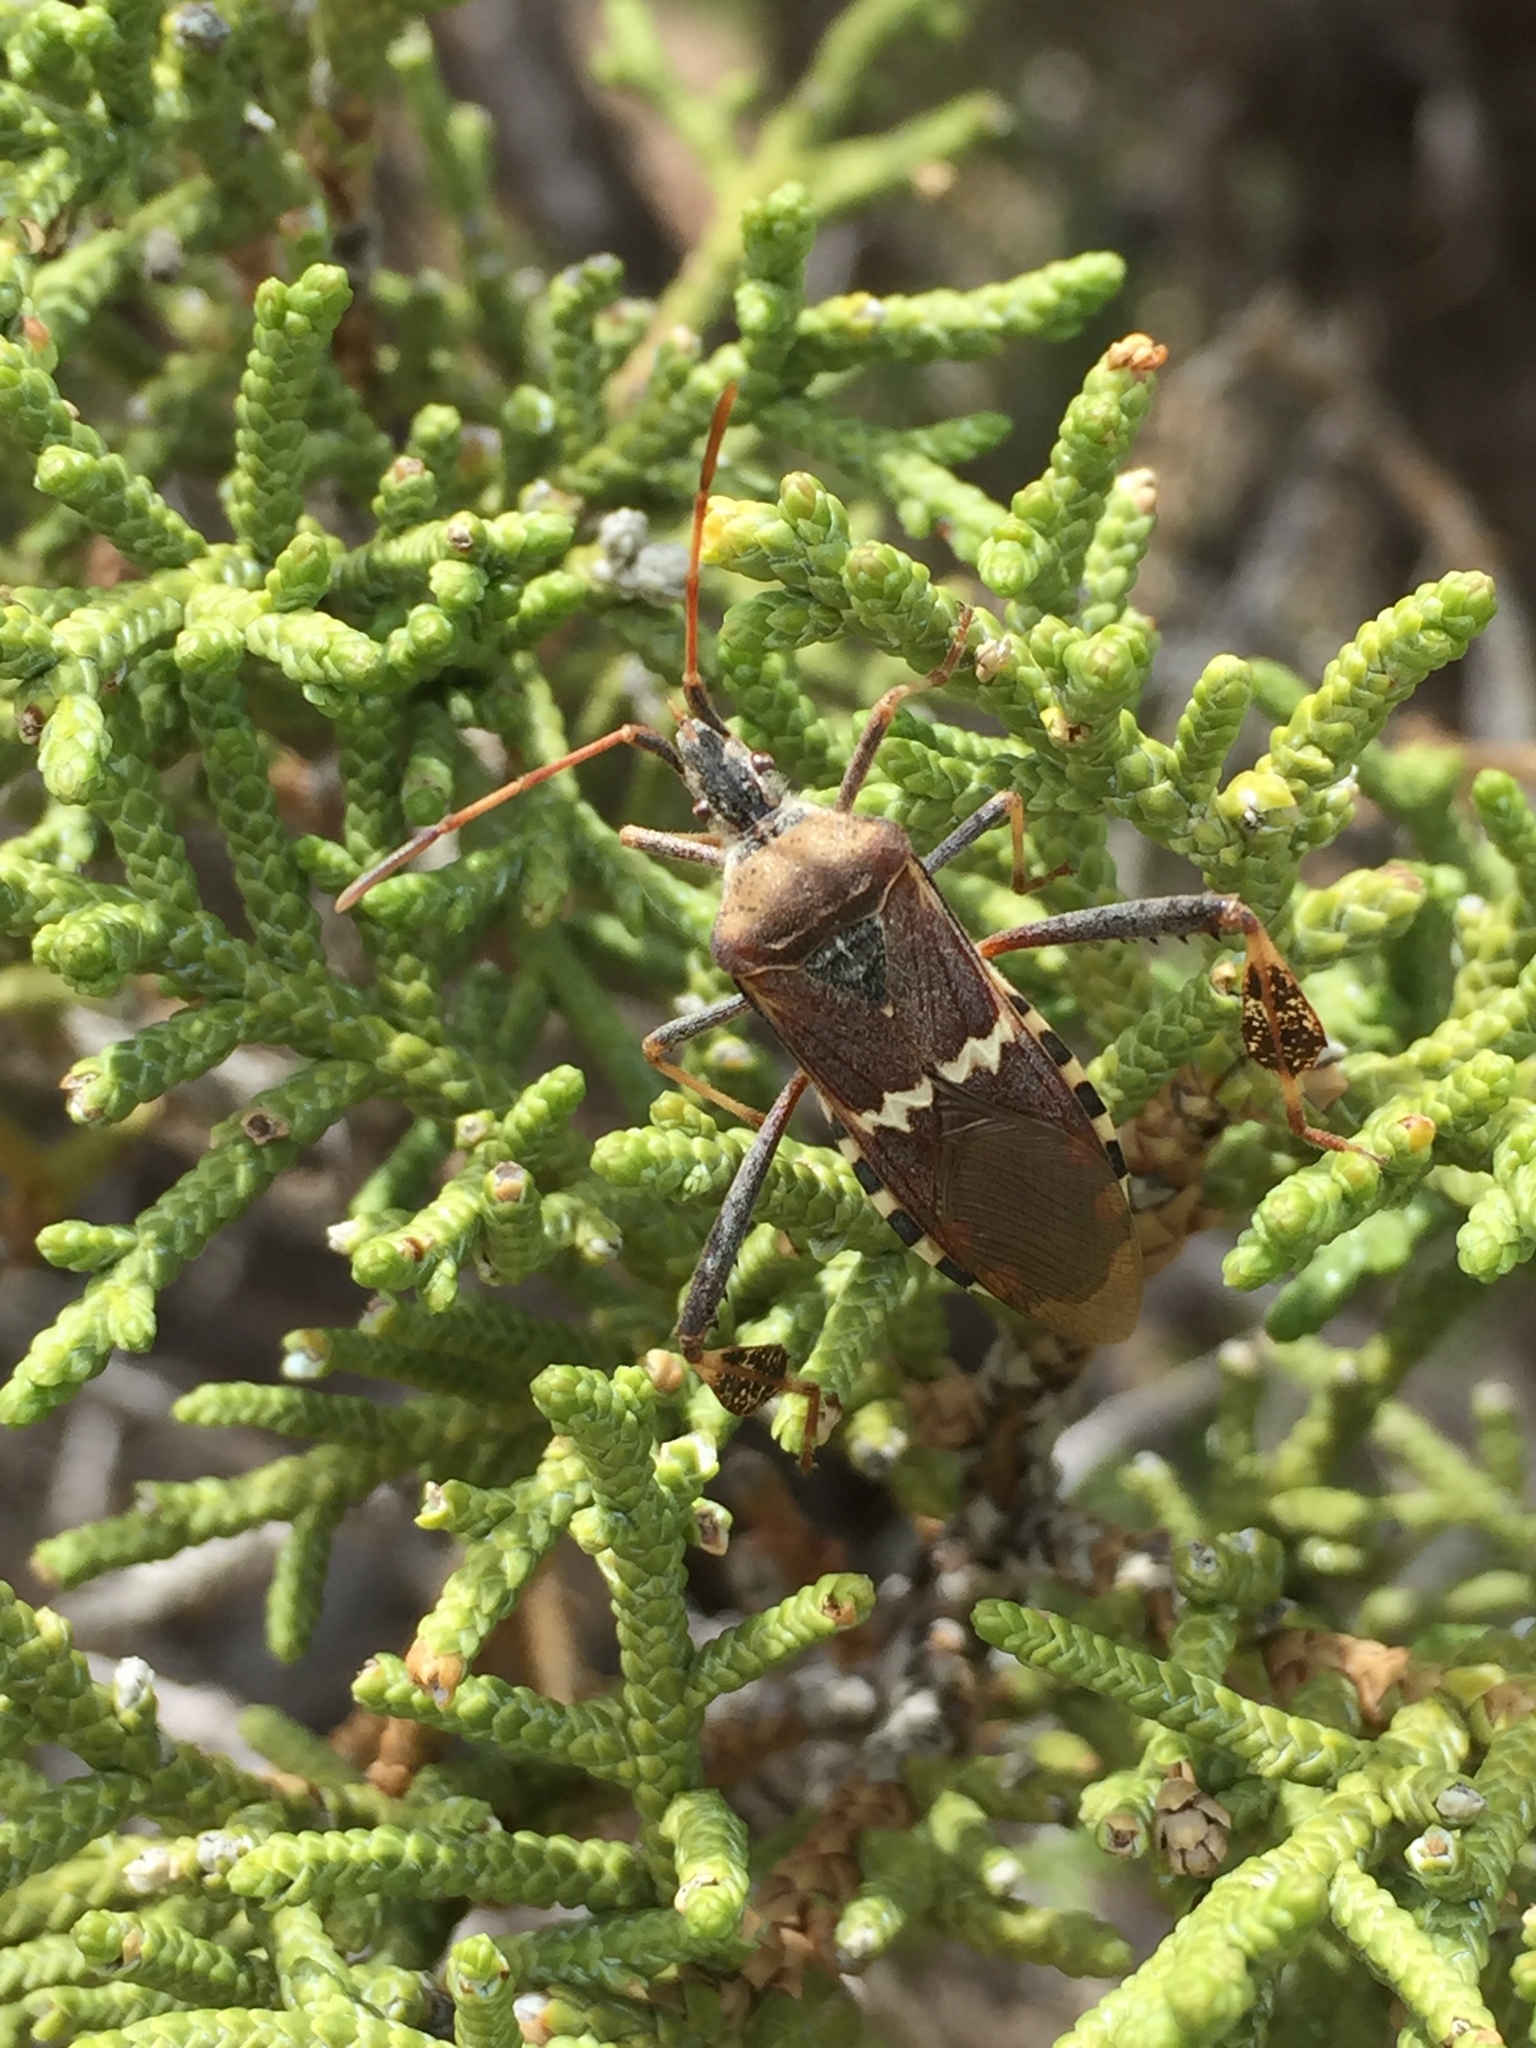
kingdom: Animalia
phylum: Arthropoda
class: Insecta
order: Hemiptera
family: Coreidae
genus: Leptoglossus
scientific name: Leptoglossus clypealis
